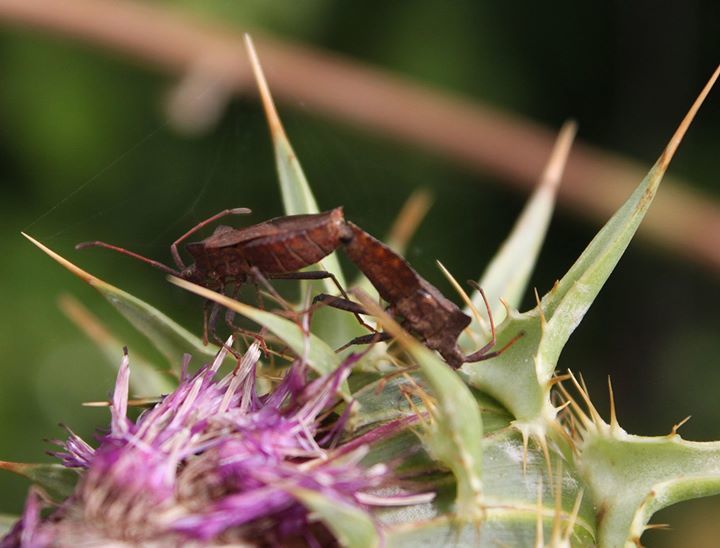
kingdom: Animalia
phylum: Arthropoda
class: Insecta
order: Hemiptera
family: Coreidae
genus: Coreus
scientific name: Coreus marginatus
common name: Dock bug
